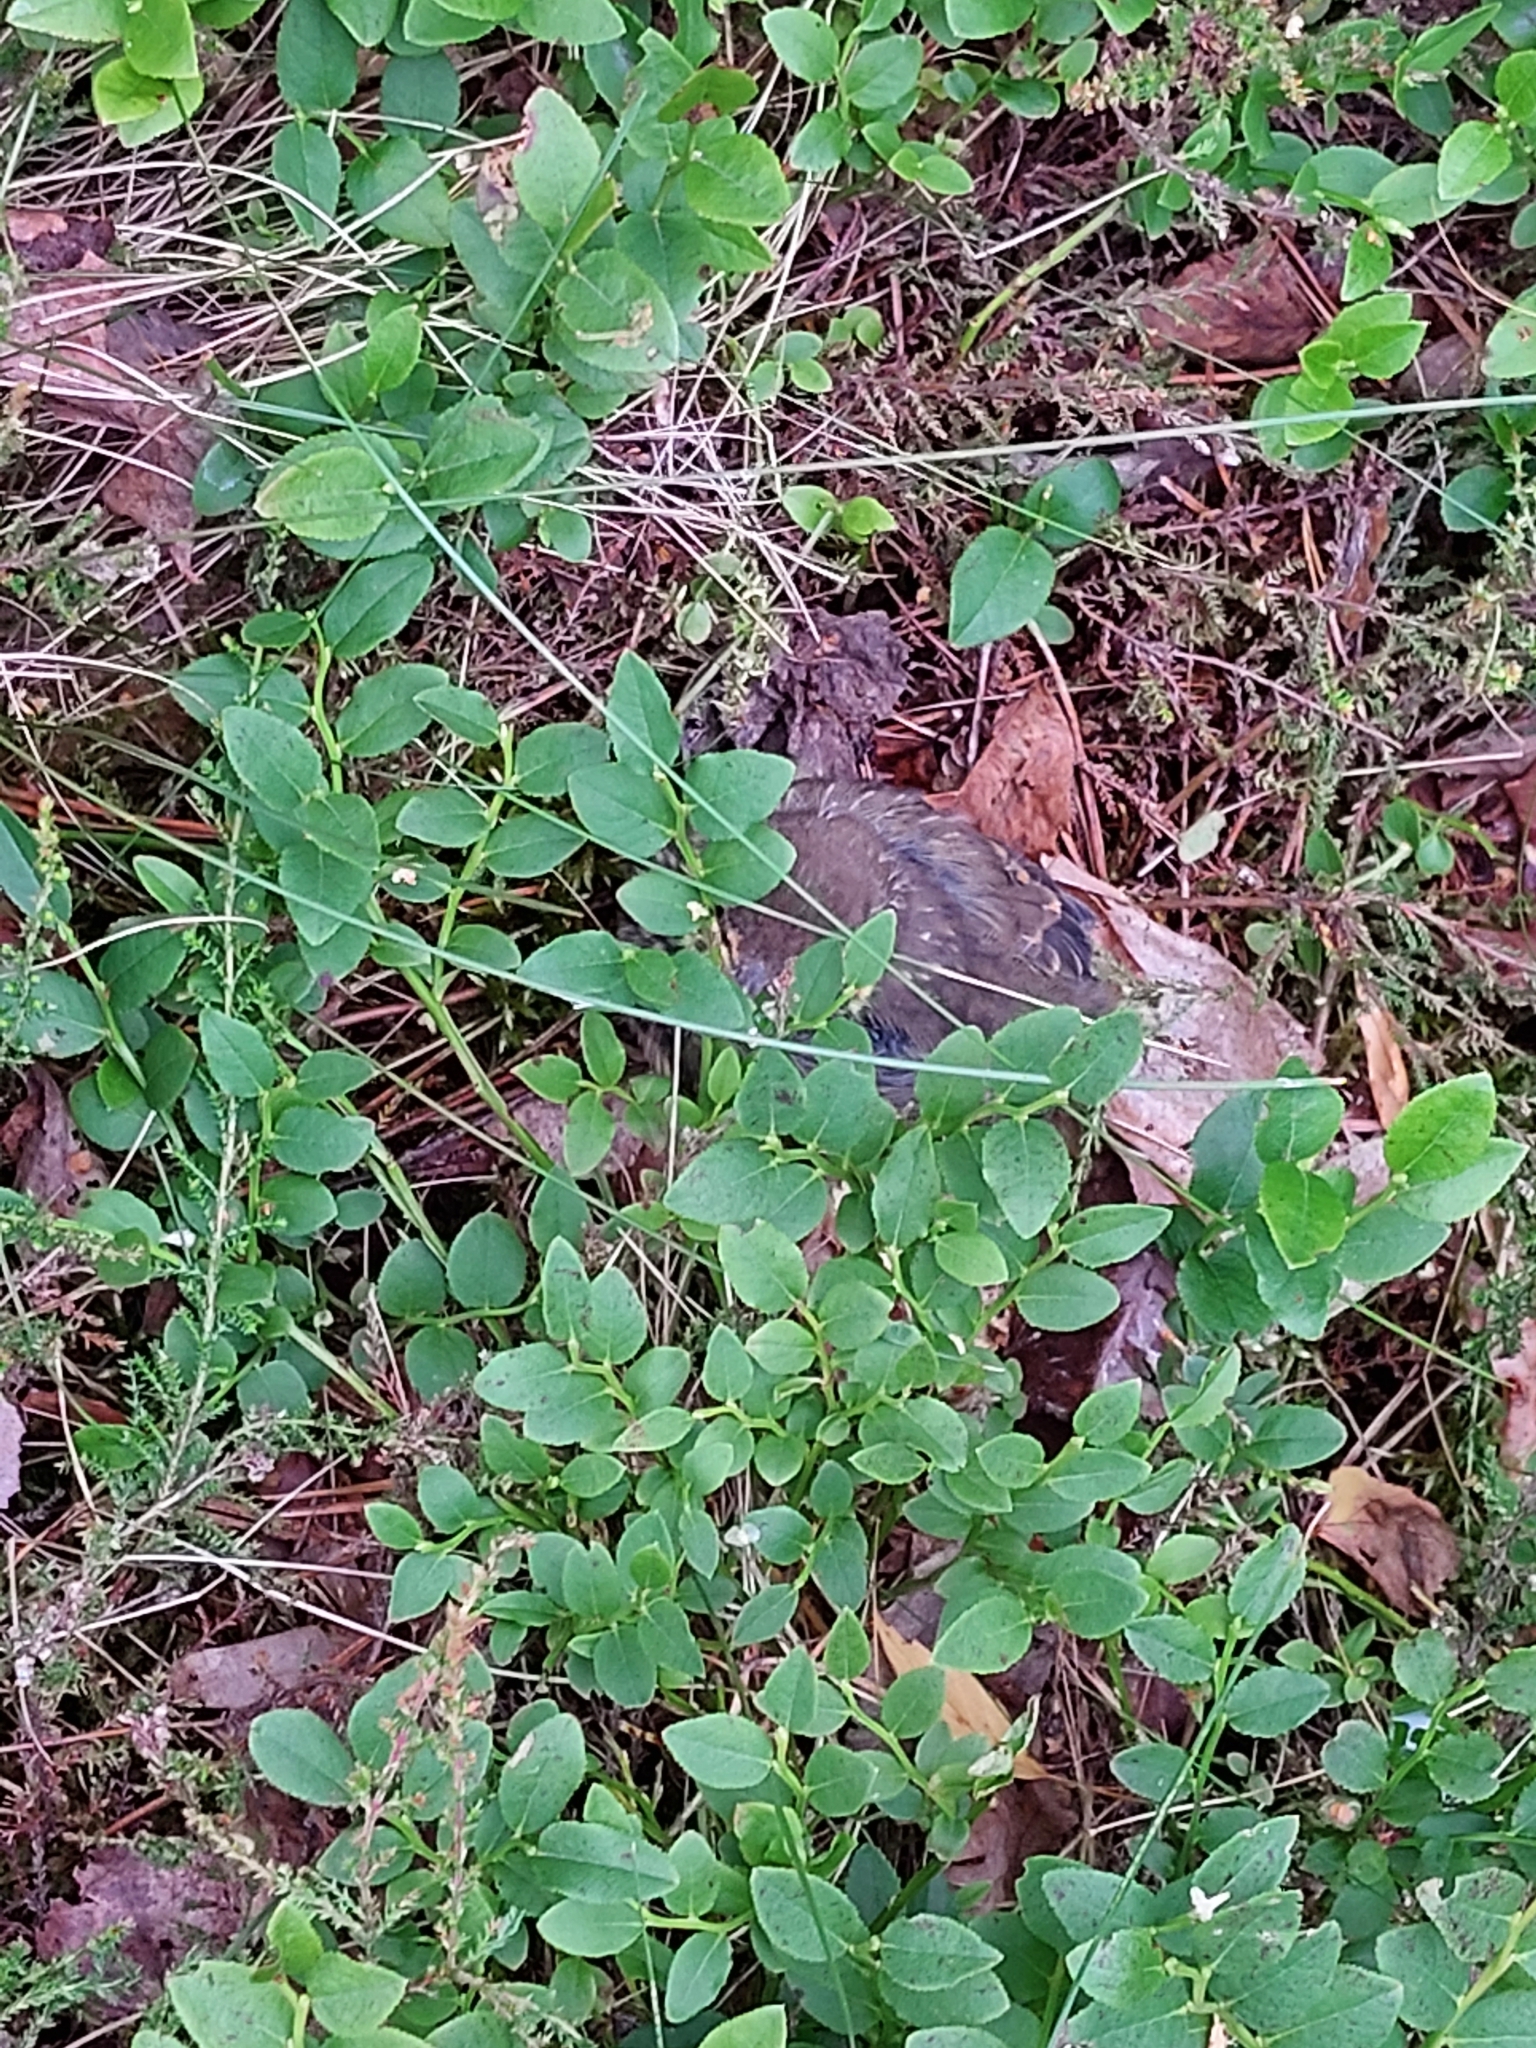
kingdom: Plantae
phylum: Tracheophyta
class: Magnoliopsida
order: Ericales
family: Ericaceae
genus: Vaccinium
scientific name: Vaccinium myrtillus
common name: Bilberry
